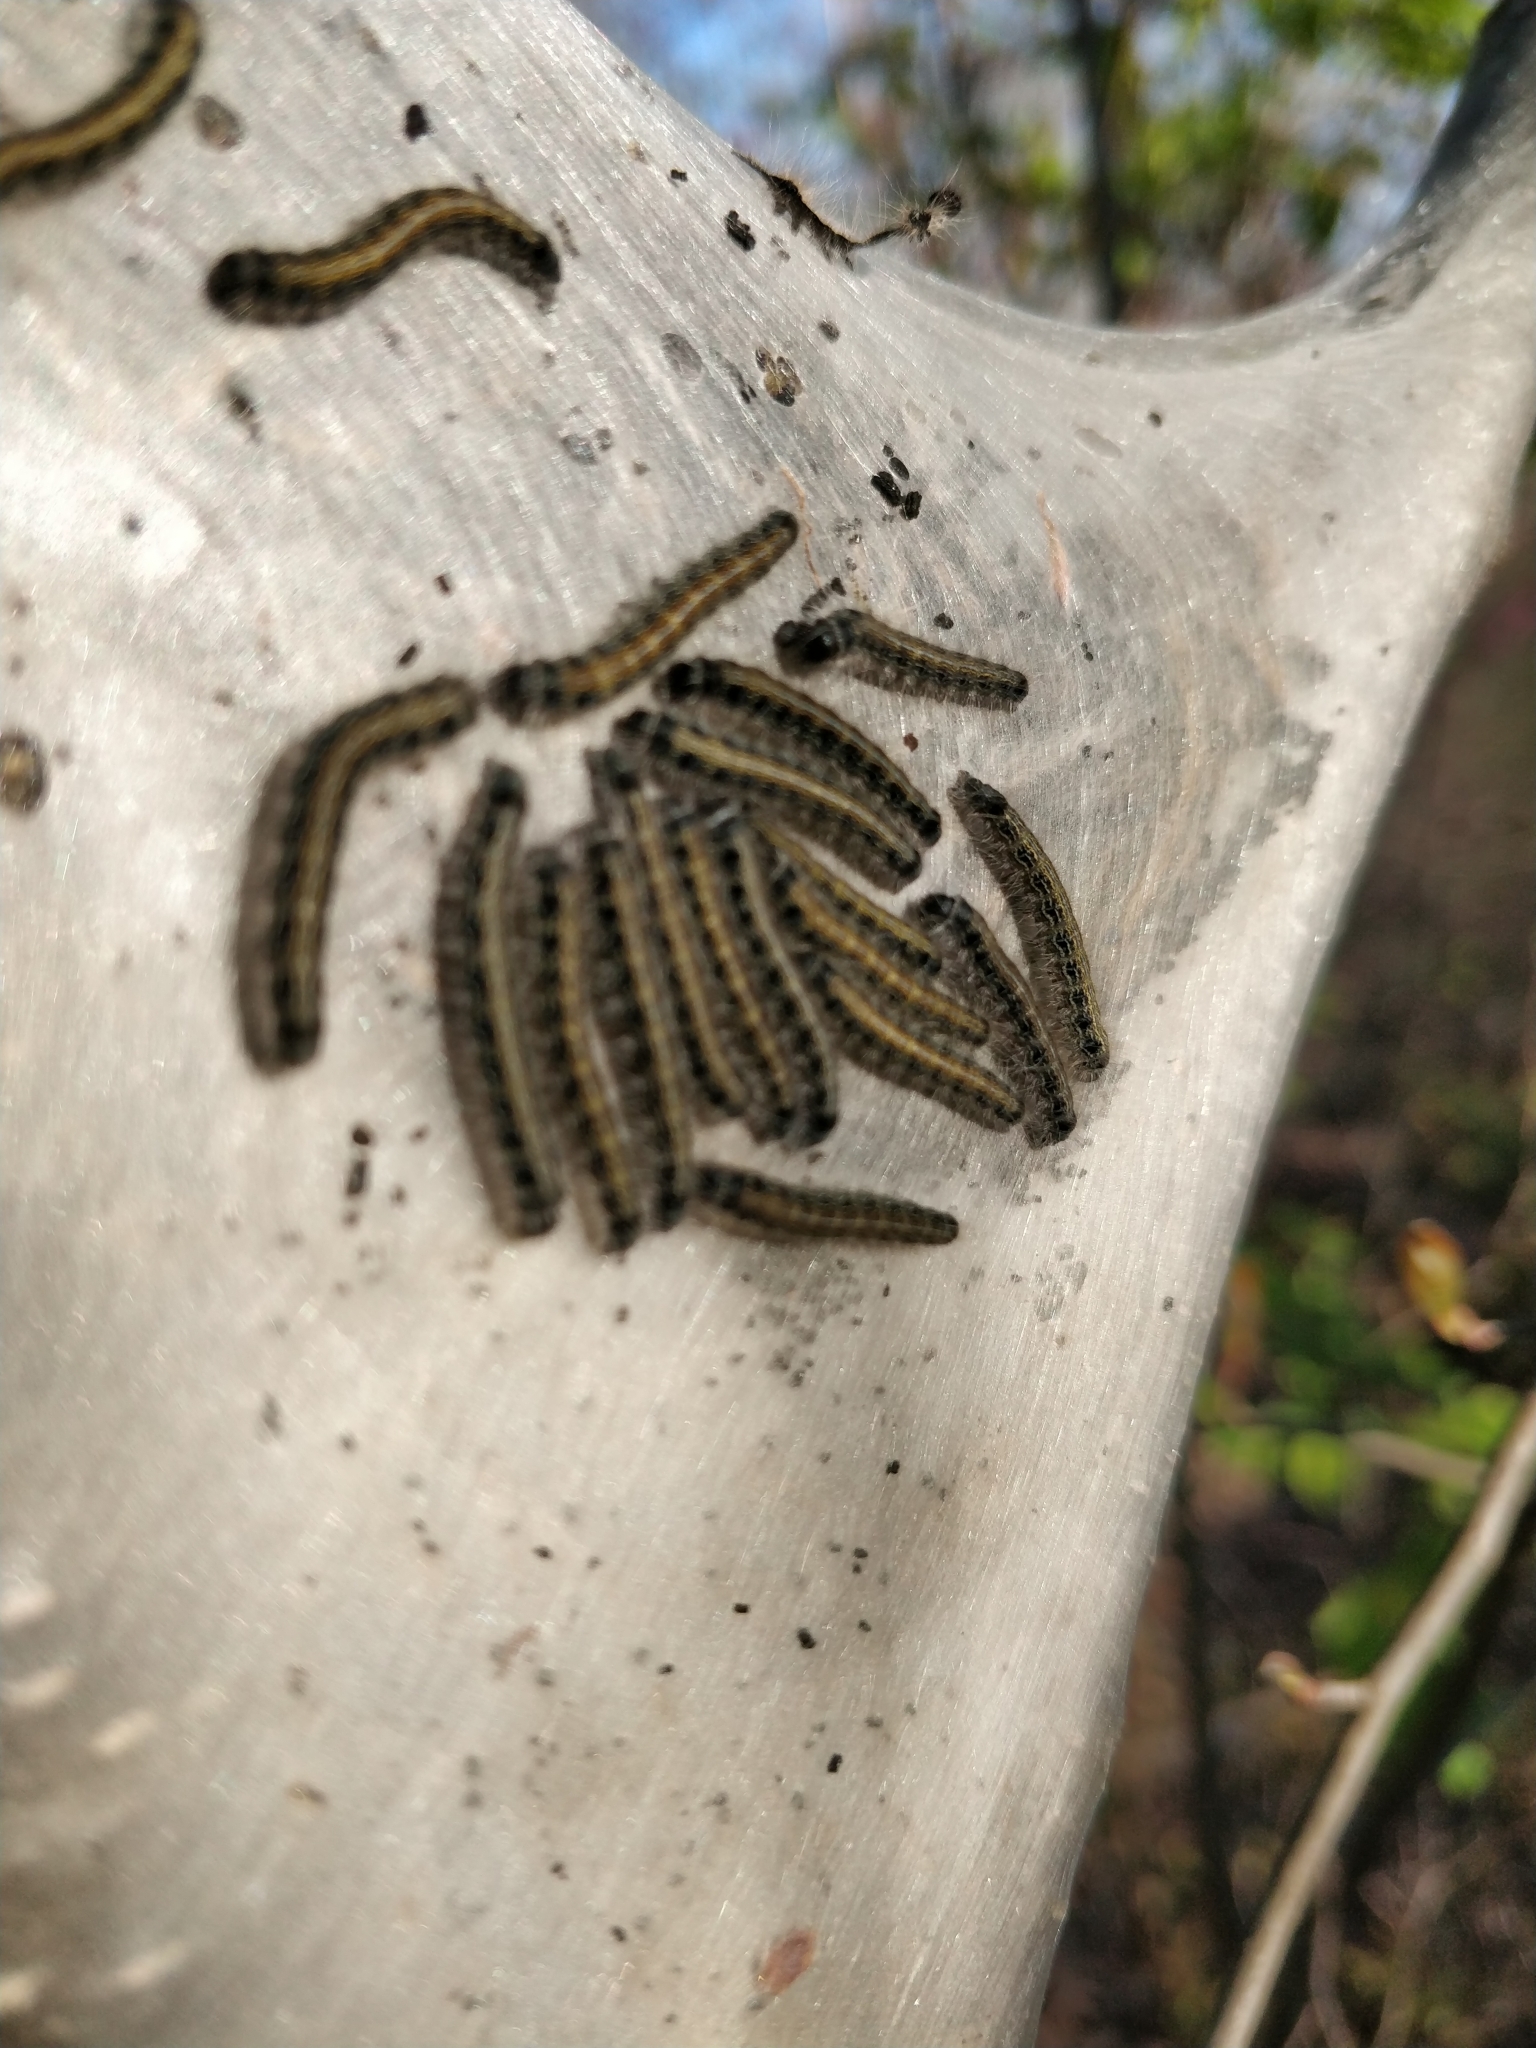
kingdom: Animalia
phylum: Arthropoda
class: Insecta
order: Lepidoptera
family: Lasiocampidae
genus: Malacosoma
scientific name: Malacosoma americana
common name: Eastern tent caterpillar moth
